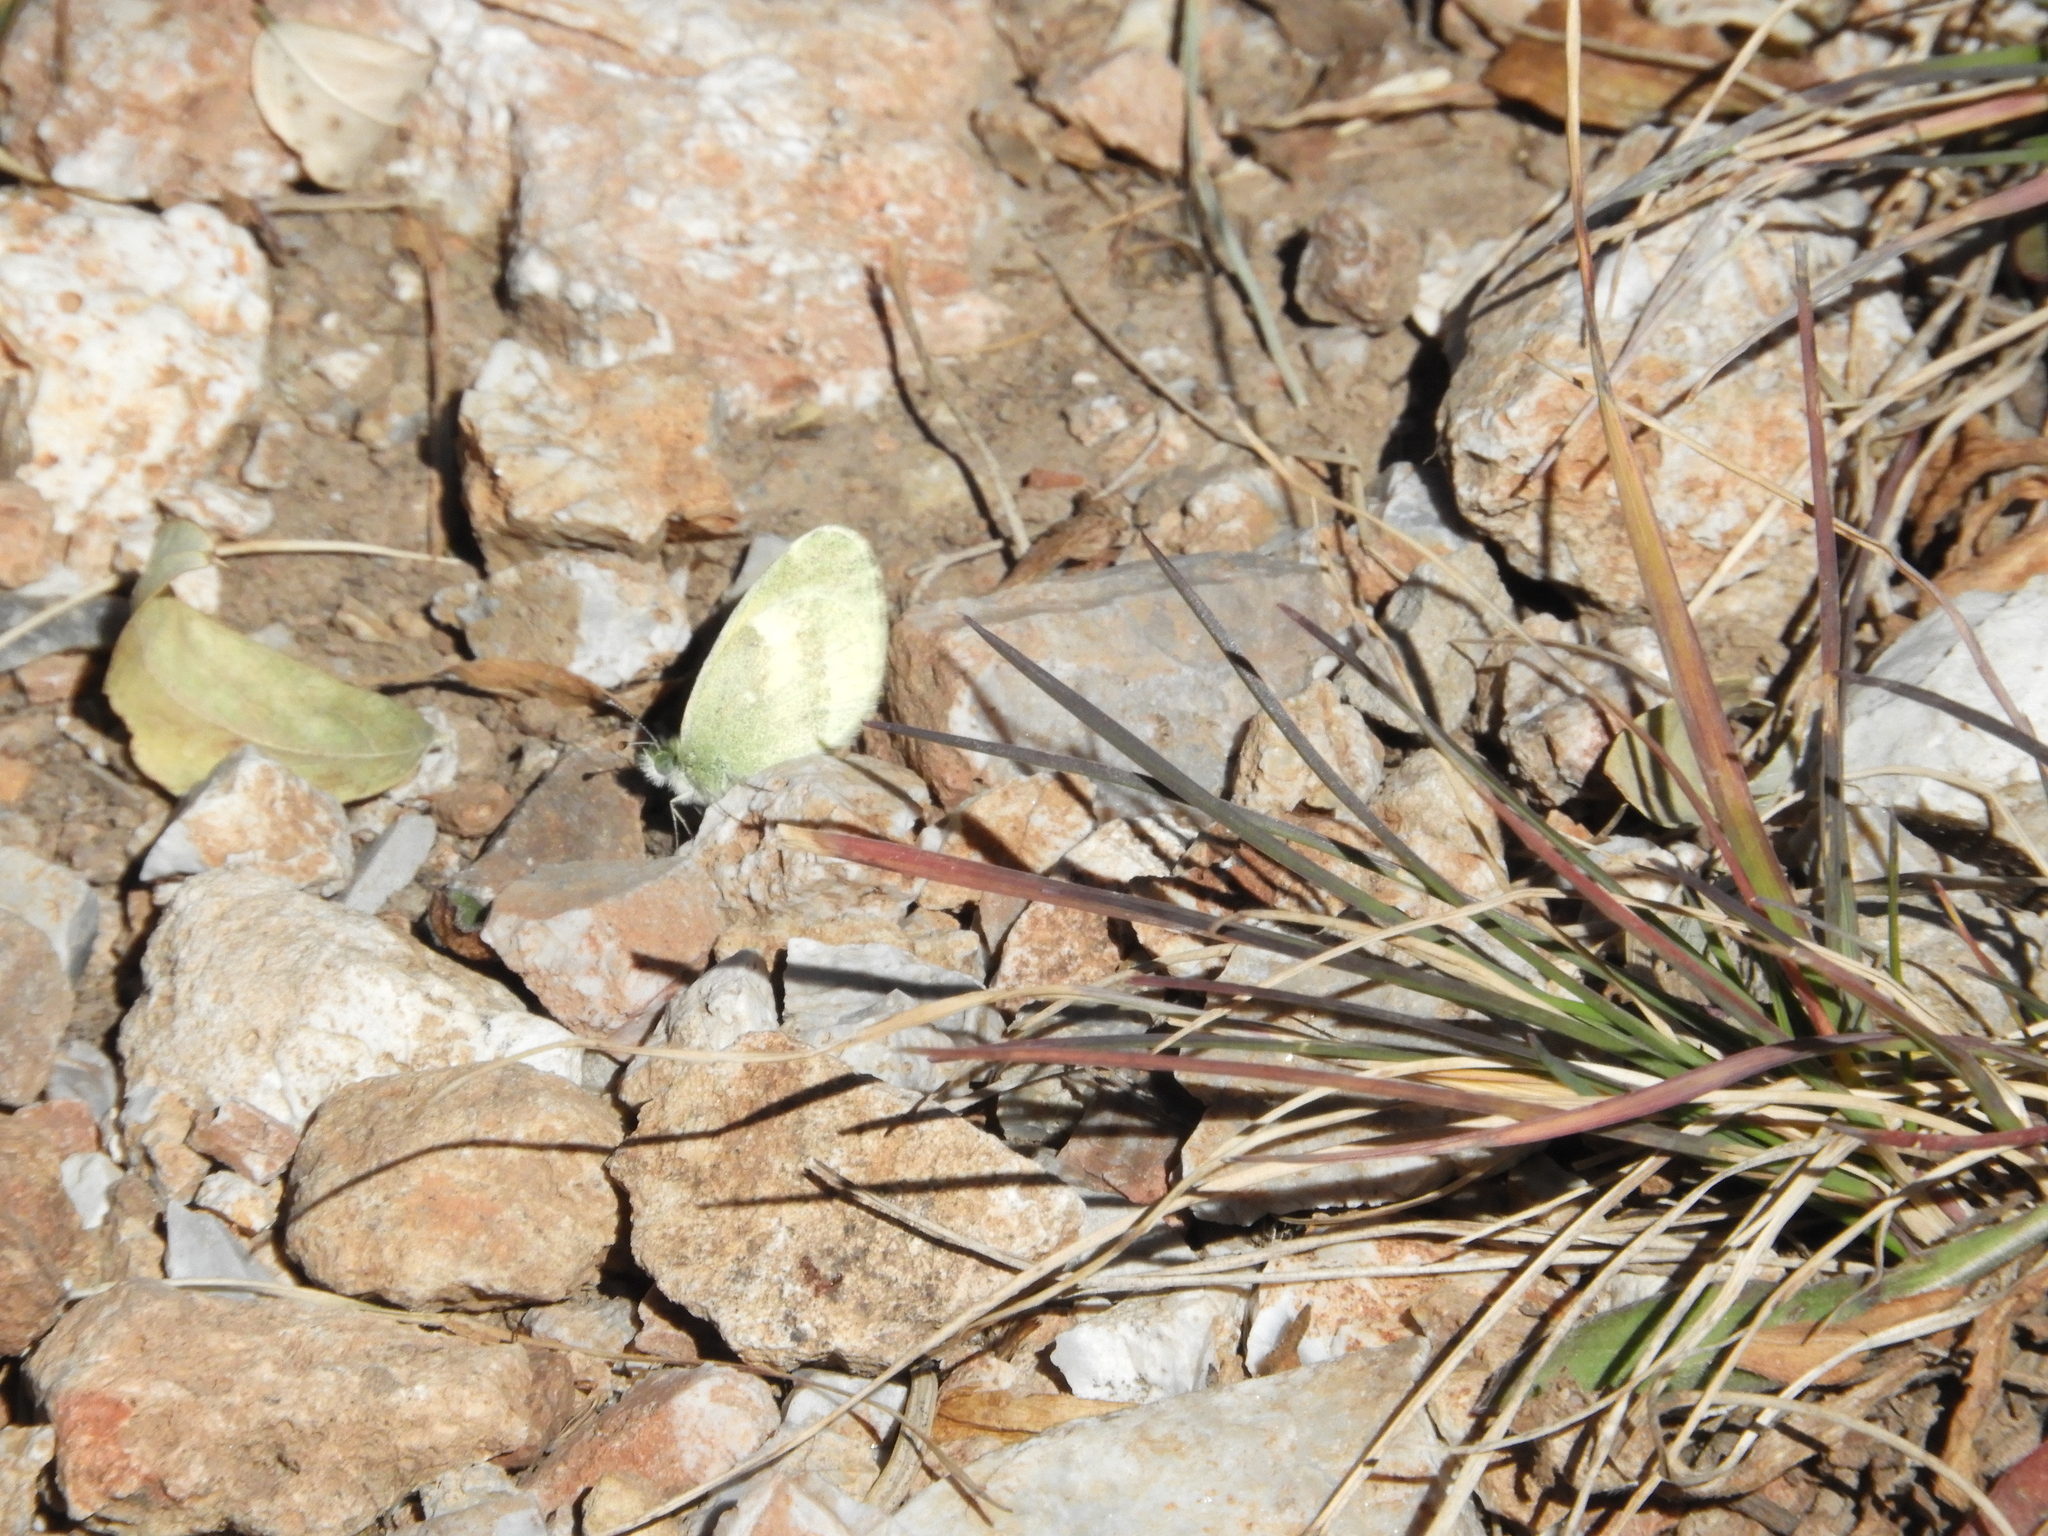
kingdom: Animalia
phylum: Arthropoda
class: Insecta
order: Lepidoptera
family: Pieridae
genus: Nathalis
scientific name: Nathalis iole
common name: Dainty sulphur
